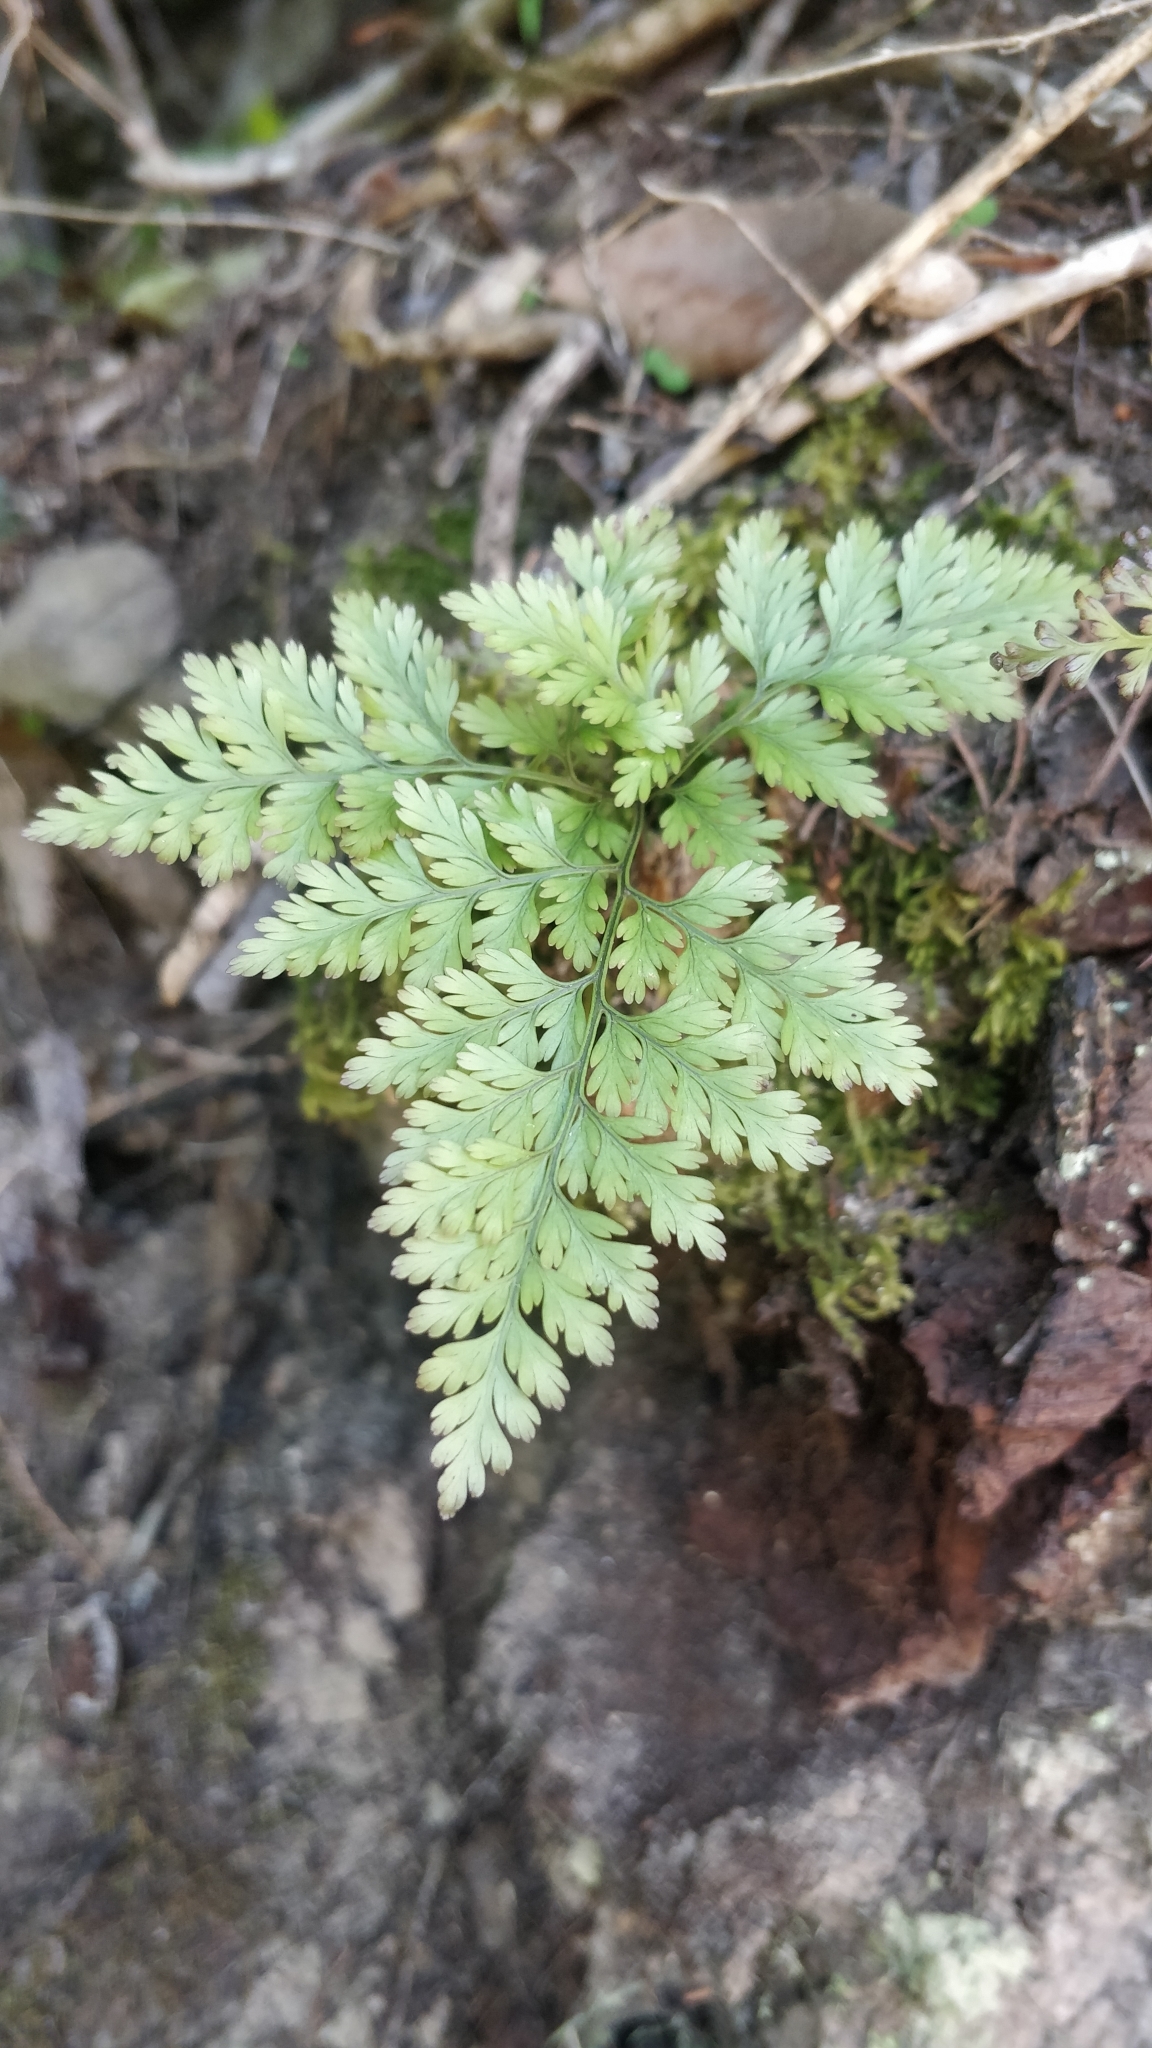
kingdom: Plantae
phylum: Tracheophyta
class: Polypodiopsida
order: Polypodiales
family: Davalliaceae
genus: Davallia
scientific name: Davallia canariensis
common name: Hare's-foot fern
